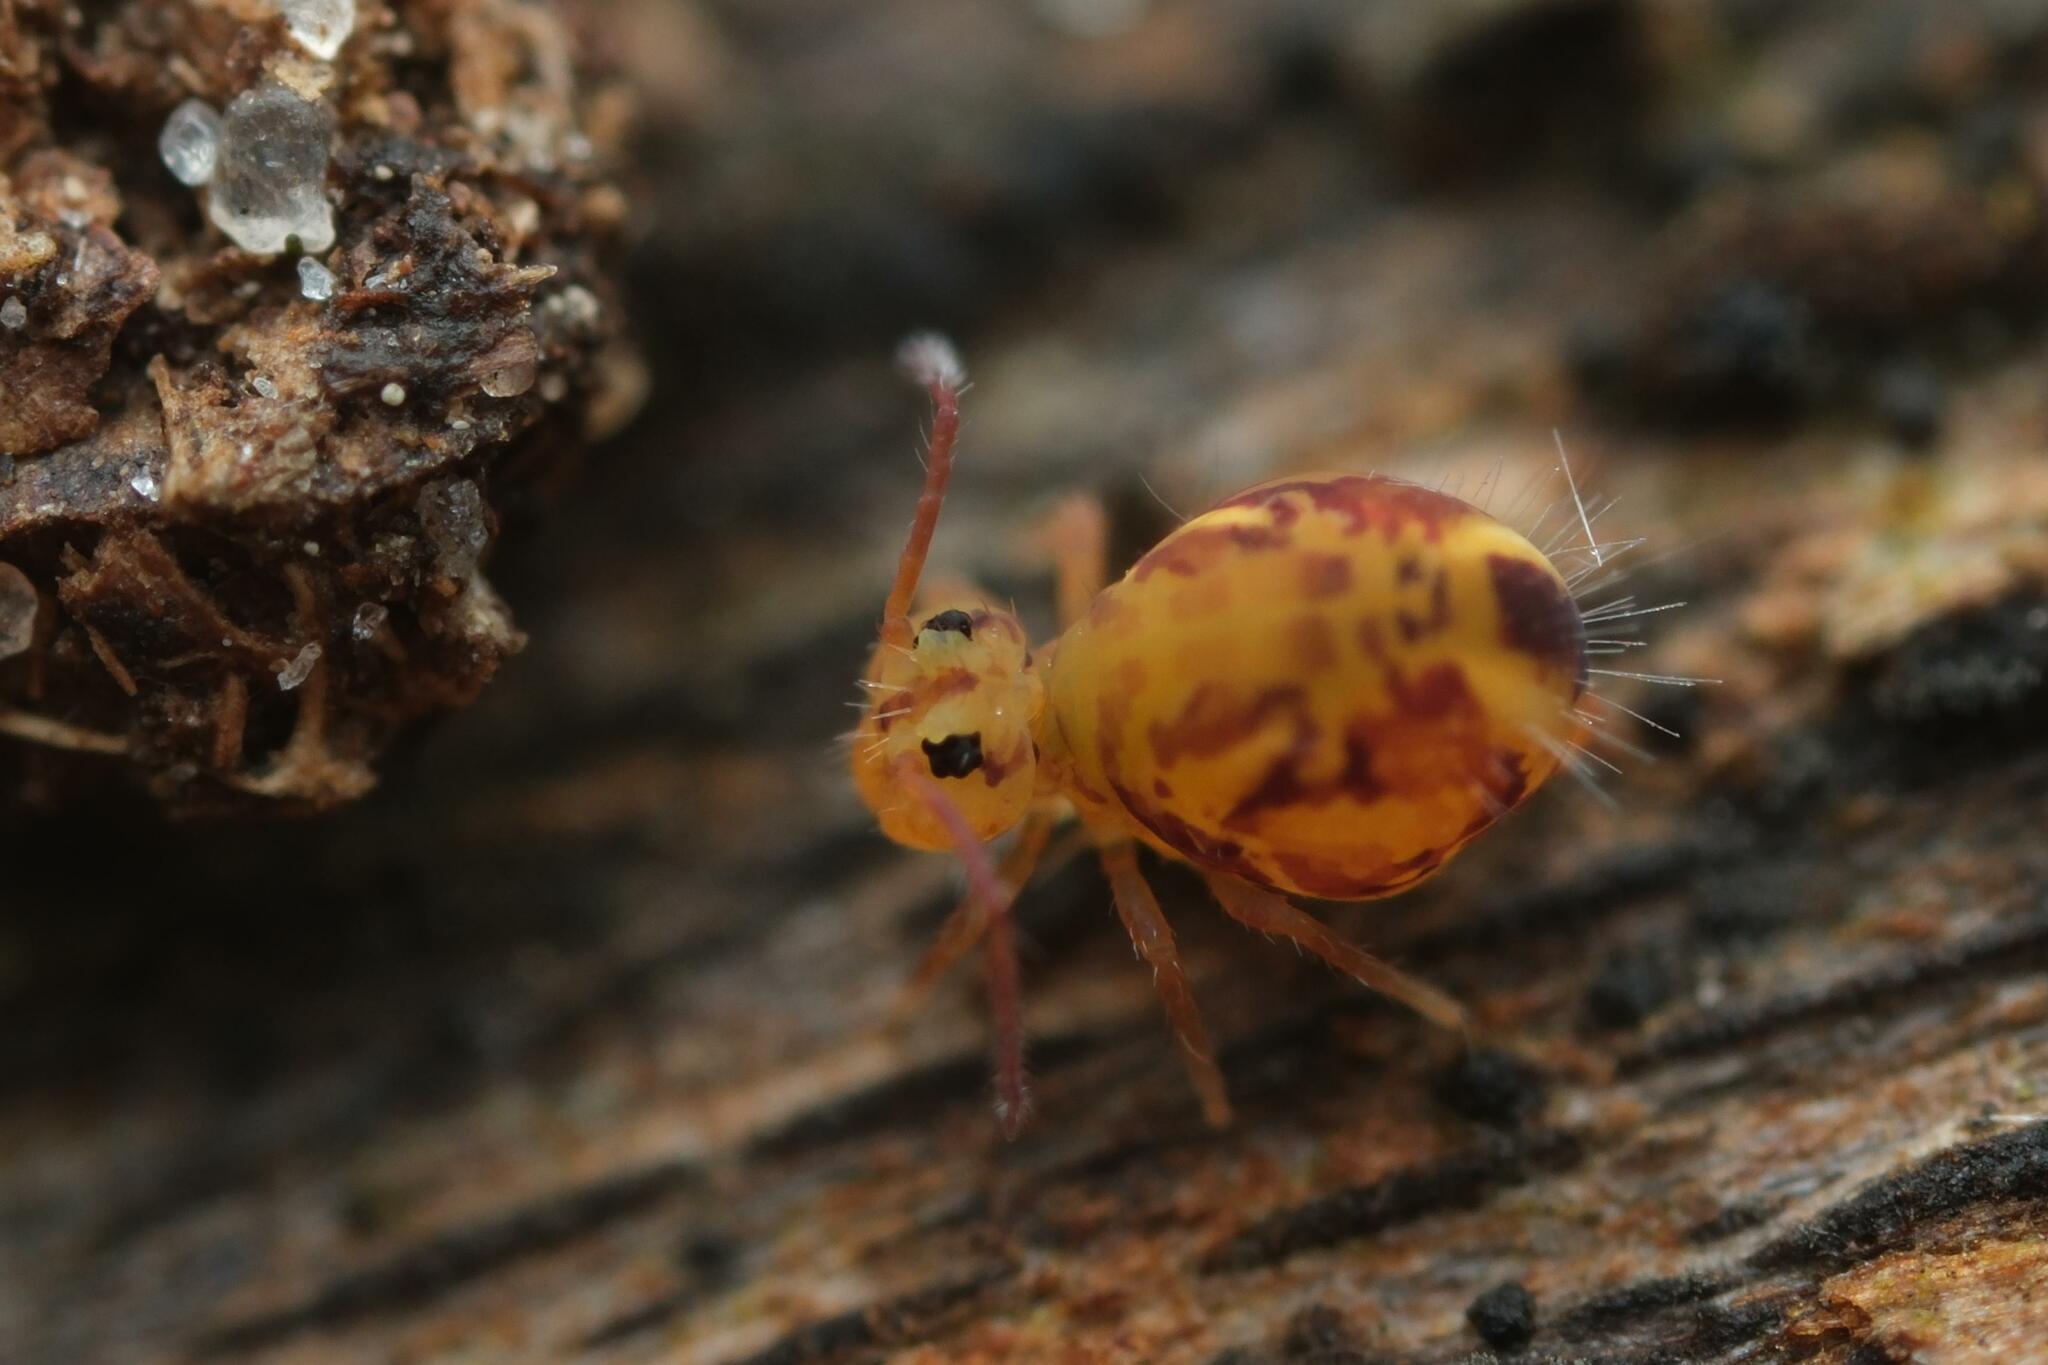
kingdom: Animalia
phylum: Arthropoda
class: Collembola
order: Symphypleona
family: Dicyrtomidae
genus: Dicyrtomina
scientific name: Dicyrtomina ornata
